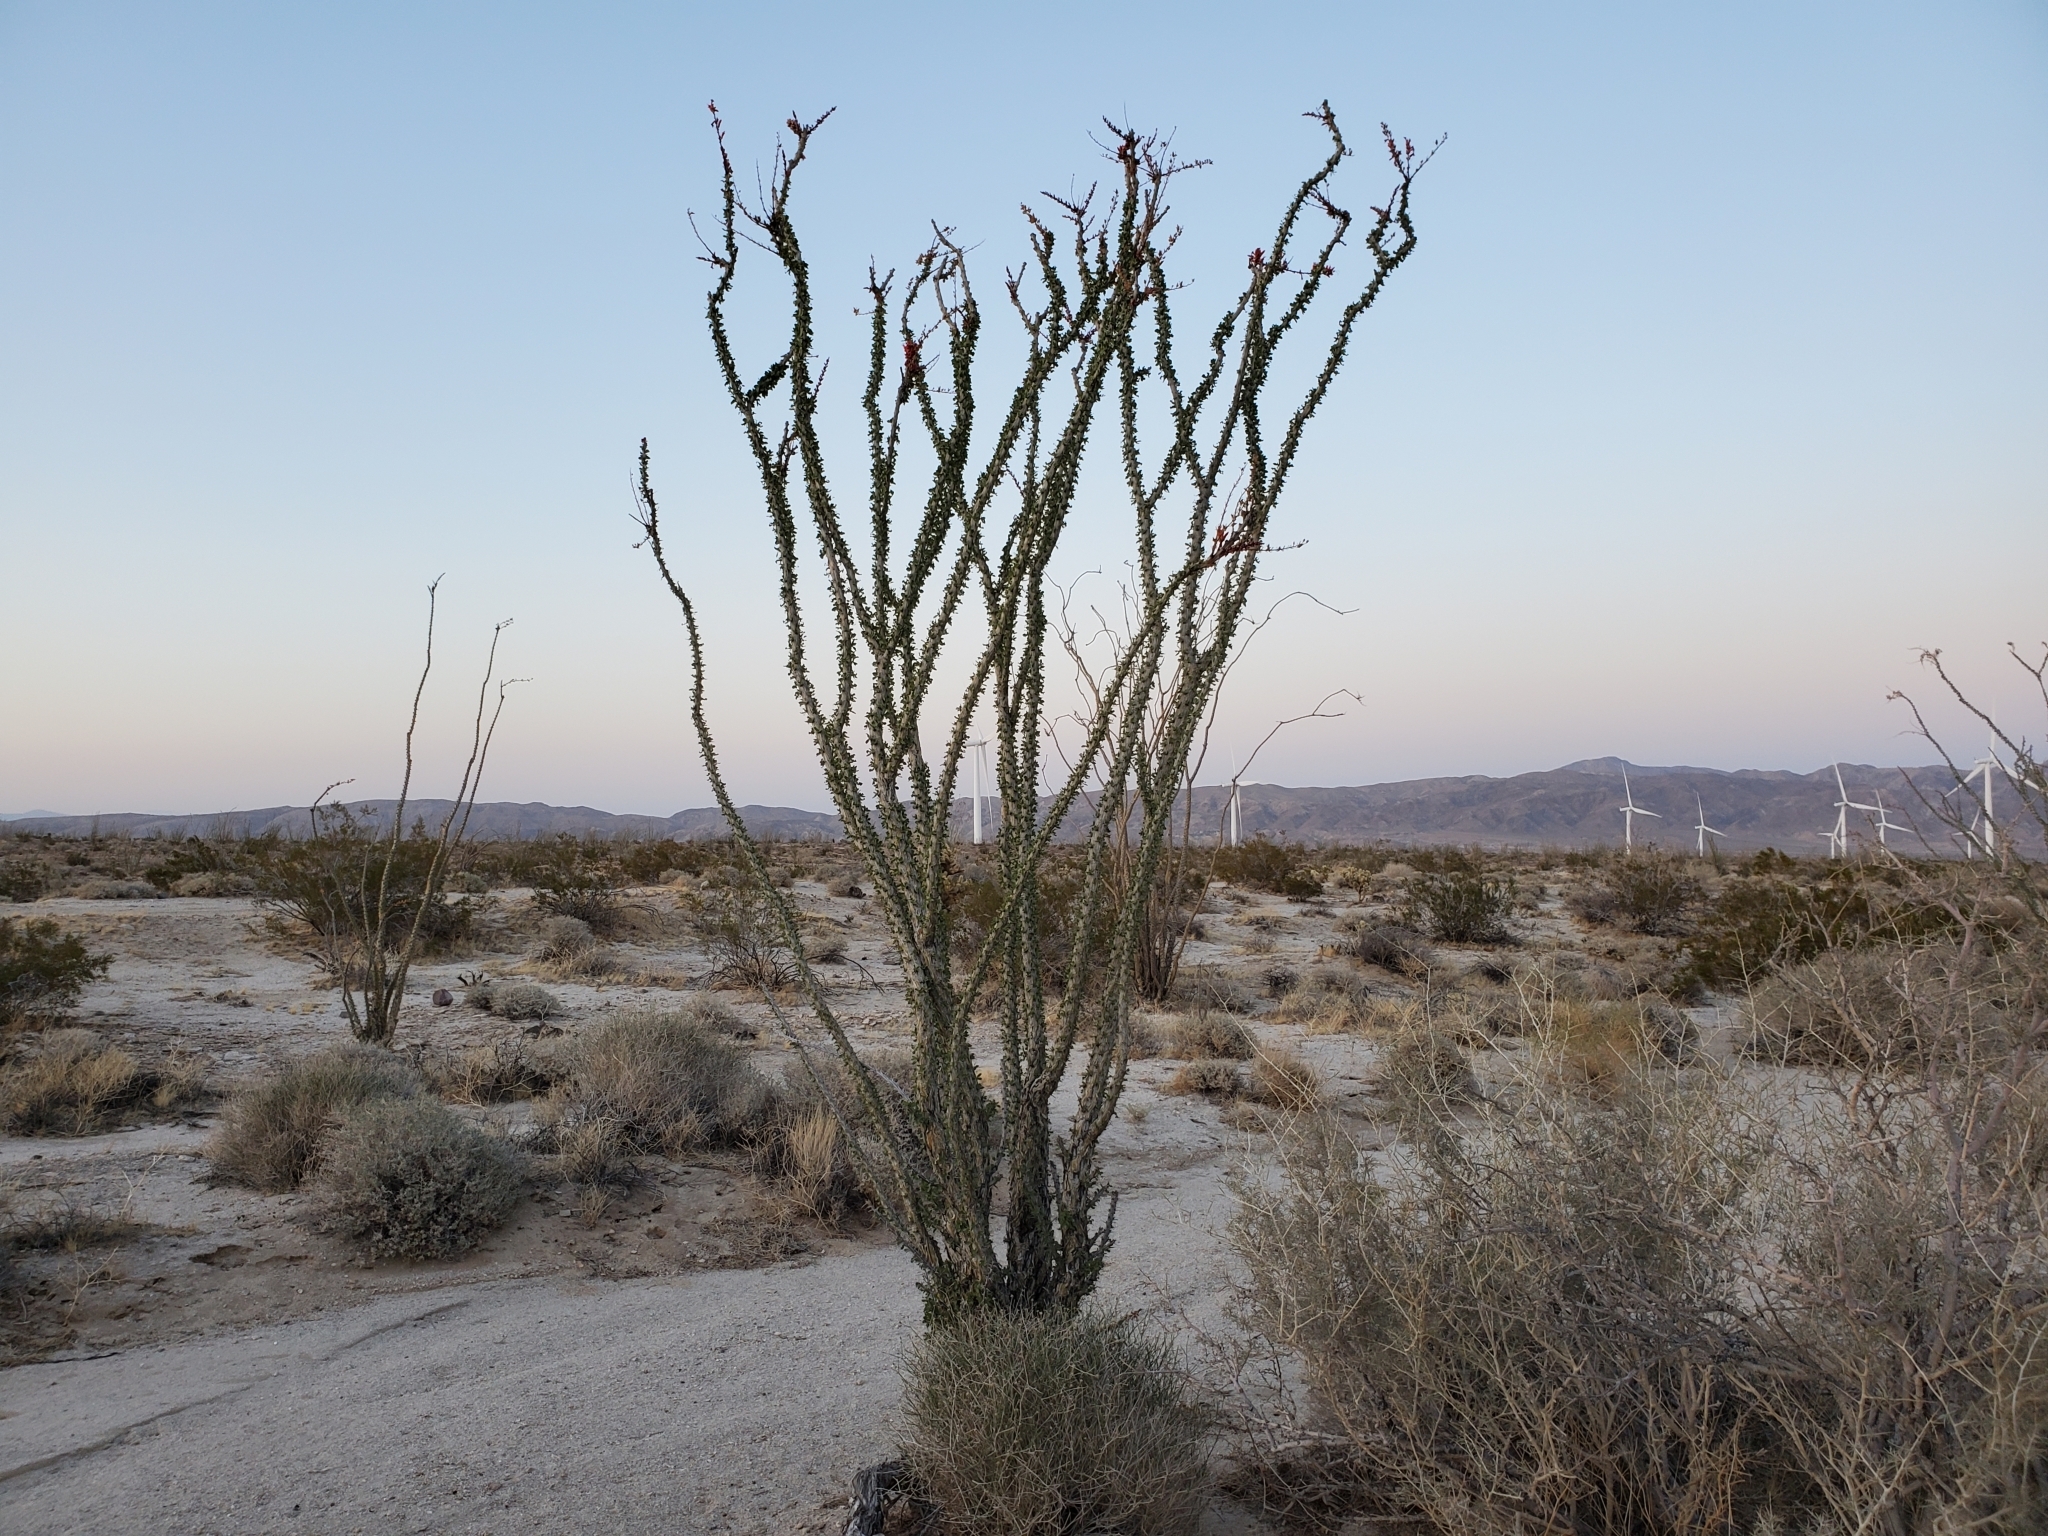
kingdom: Plantae
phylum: Tracheophyta
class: Magnoliopsida
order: Ericales
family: Fouquieriaceae
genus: Fouquieria
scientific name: Fouquieria splendens
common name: Vine-cactus
